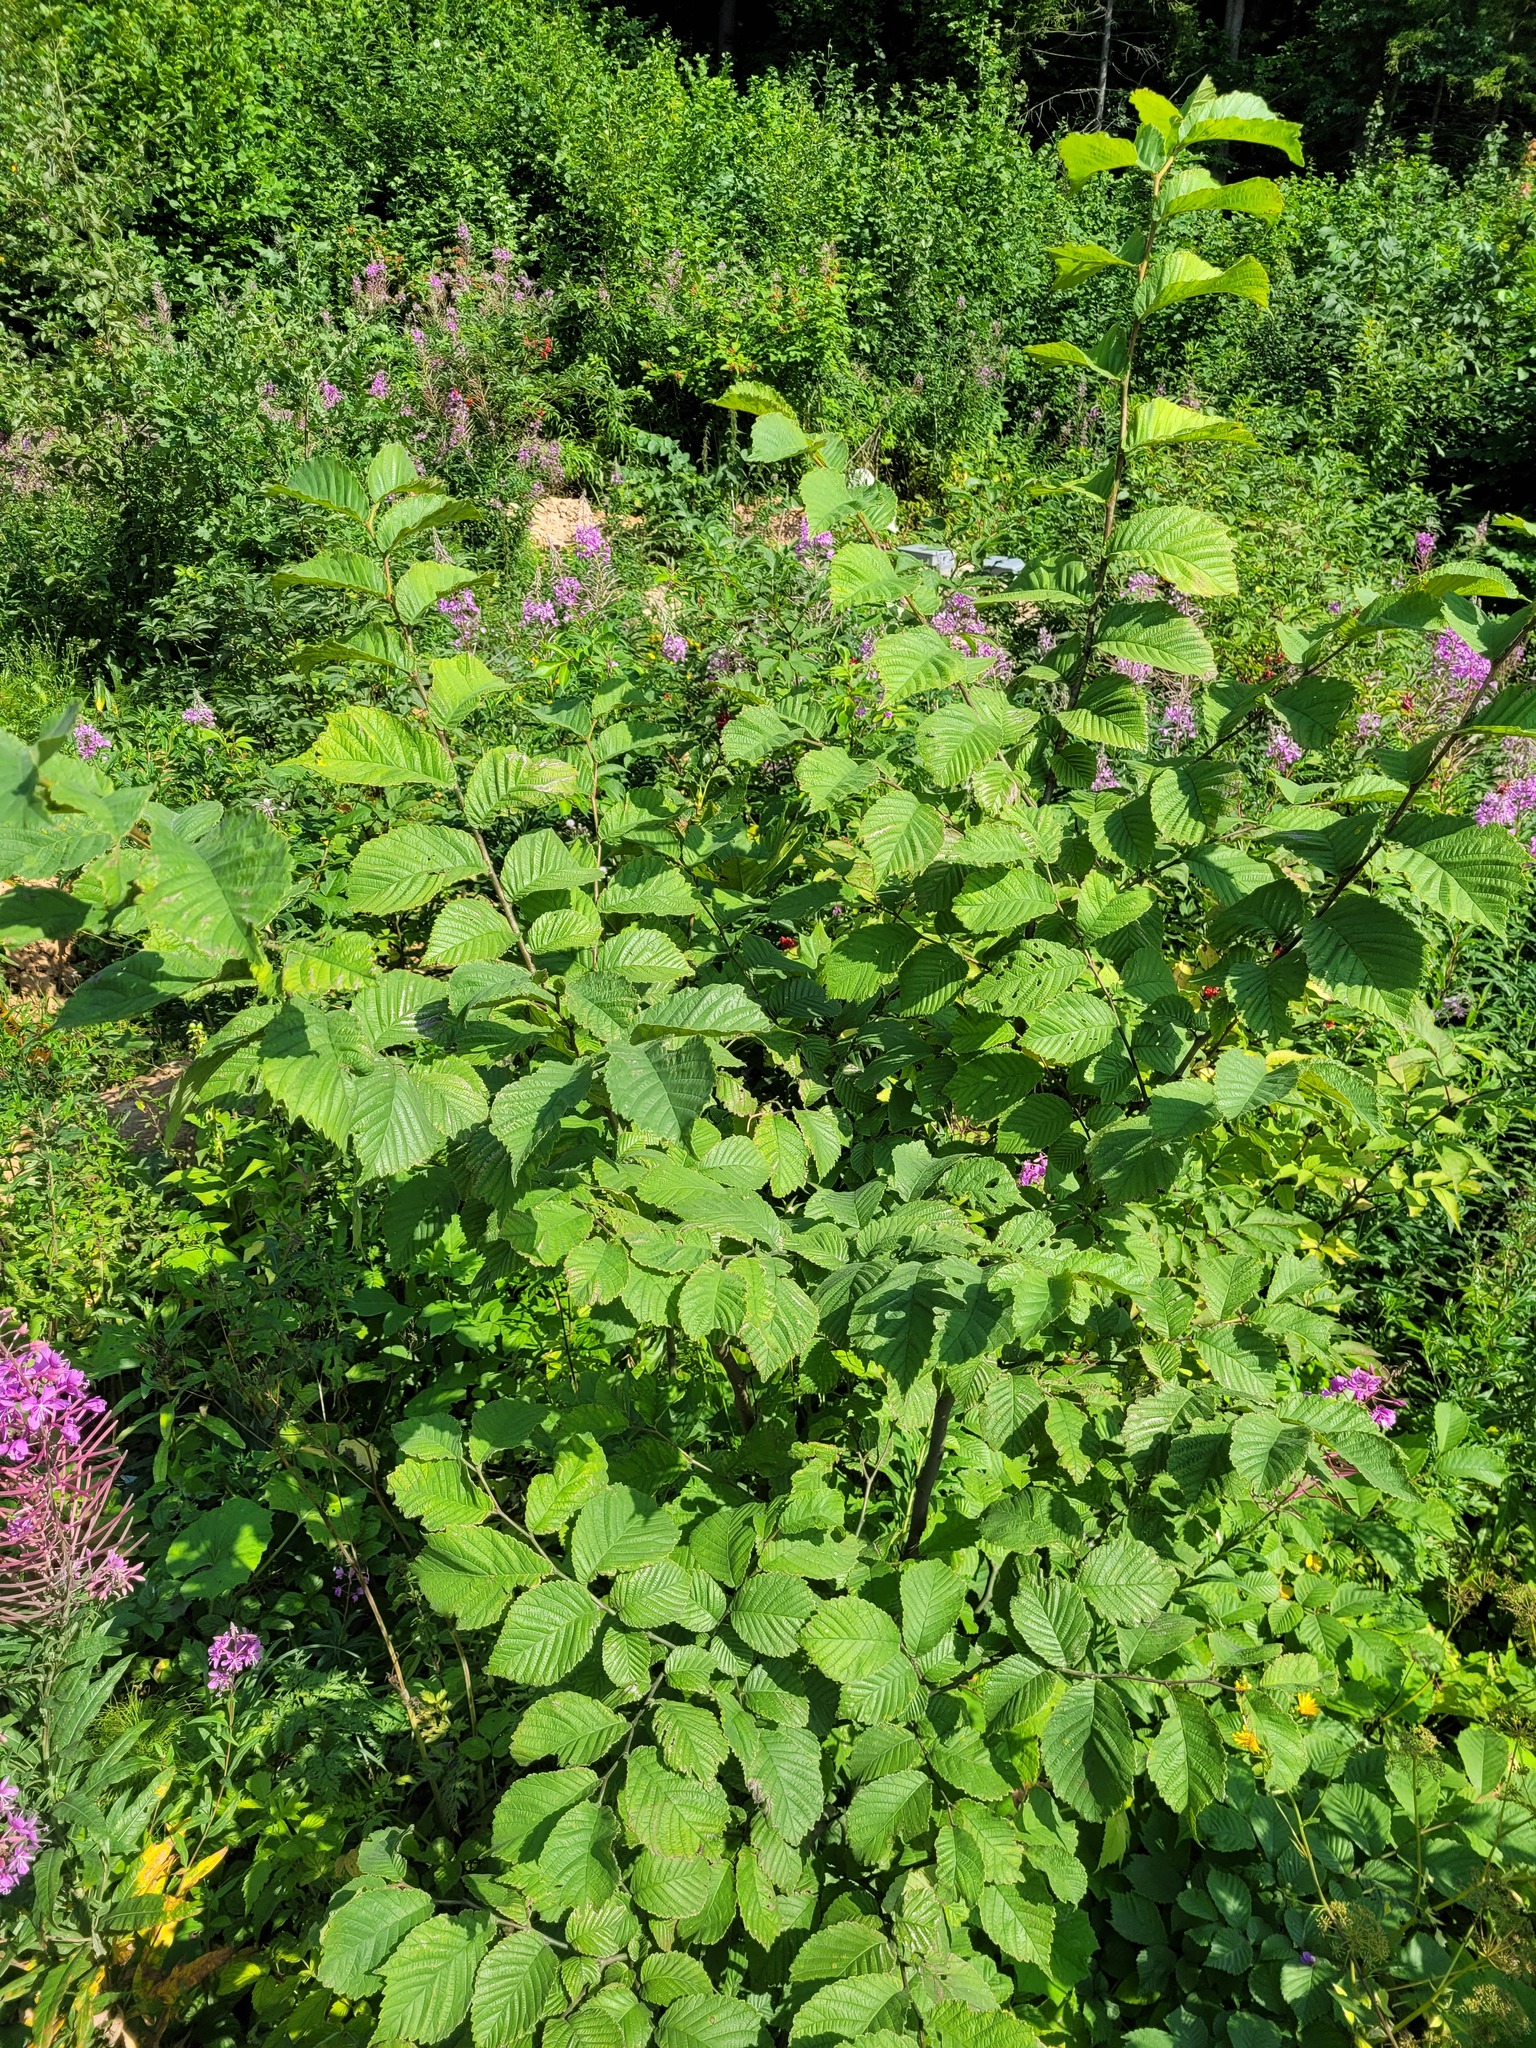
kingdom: Plantae
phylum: Tracheophyta
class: Magnoliopsida
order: Rosales
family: Ulmaceae
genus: Ulmus
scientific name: Ulmus glabra
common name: Wych elm
